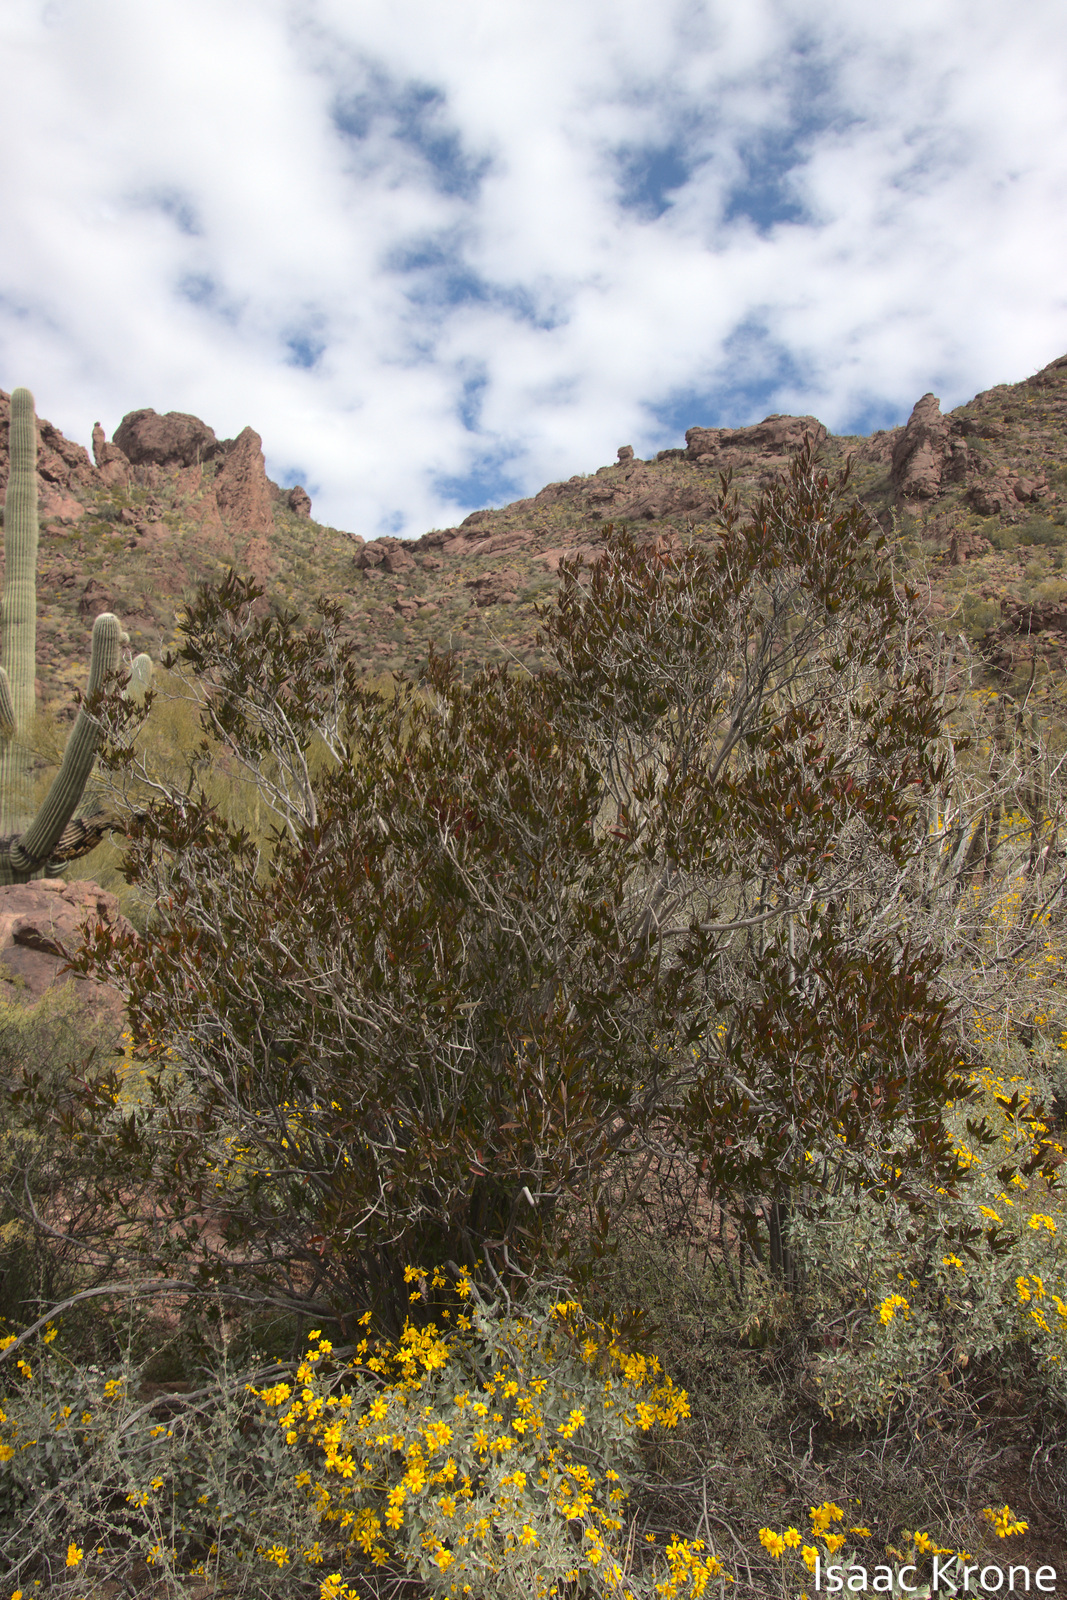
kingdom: Plantae
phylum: Tracheophyta
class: Magnoliopsida
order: Malpighiales
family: Euphorbiaceae
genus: Pleradenophora
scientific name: Pleradenophora bilocularis
